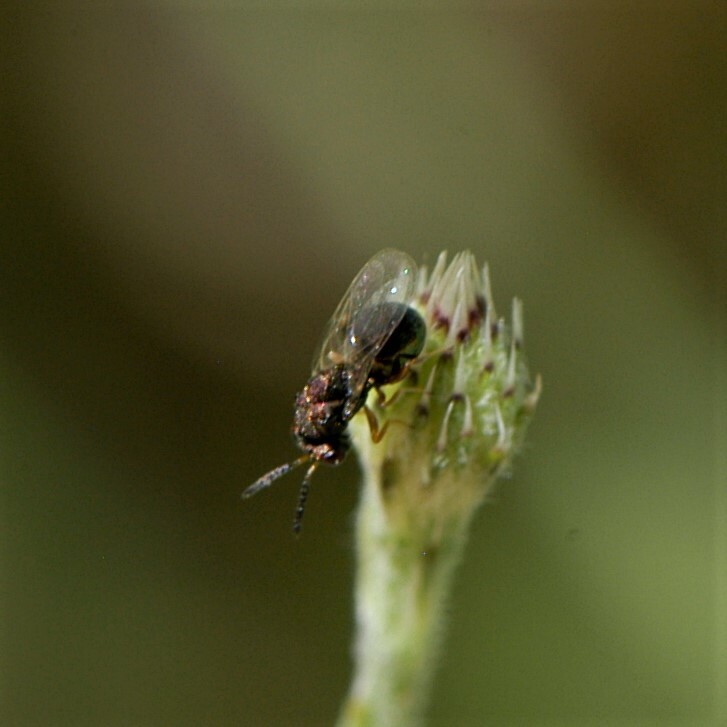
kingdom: Animalia
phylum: Arthropoda
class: Insecta
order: Hymenoptera
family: Eucharitidae
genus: Orasema
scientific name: Orasema
